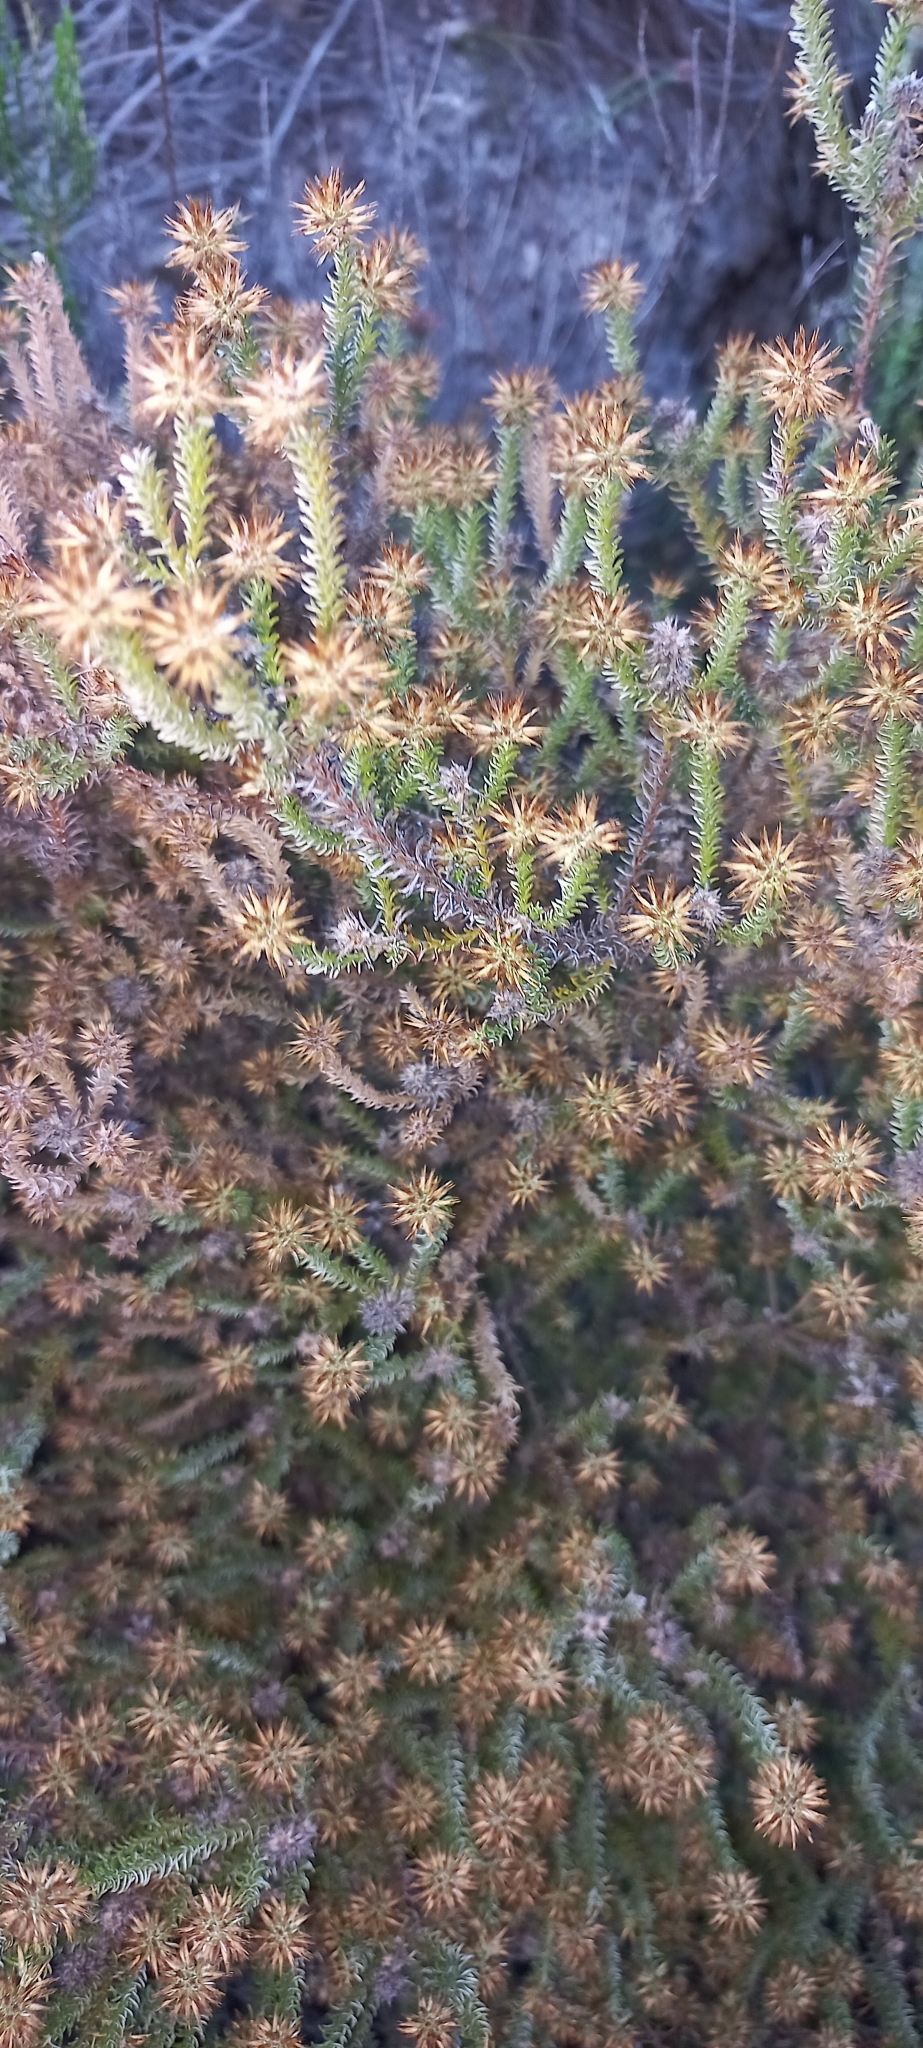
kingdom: Plantae
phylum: Tracheophyta
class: Magnoliopsida
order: Asterales
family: Asteraceae
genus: Seriphium
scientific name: Seriphium incanum
